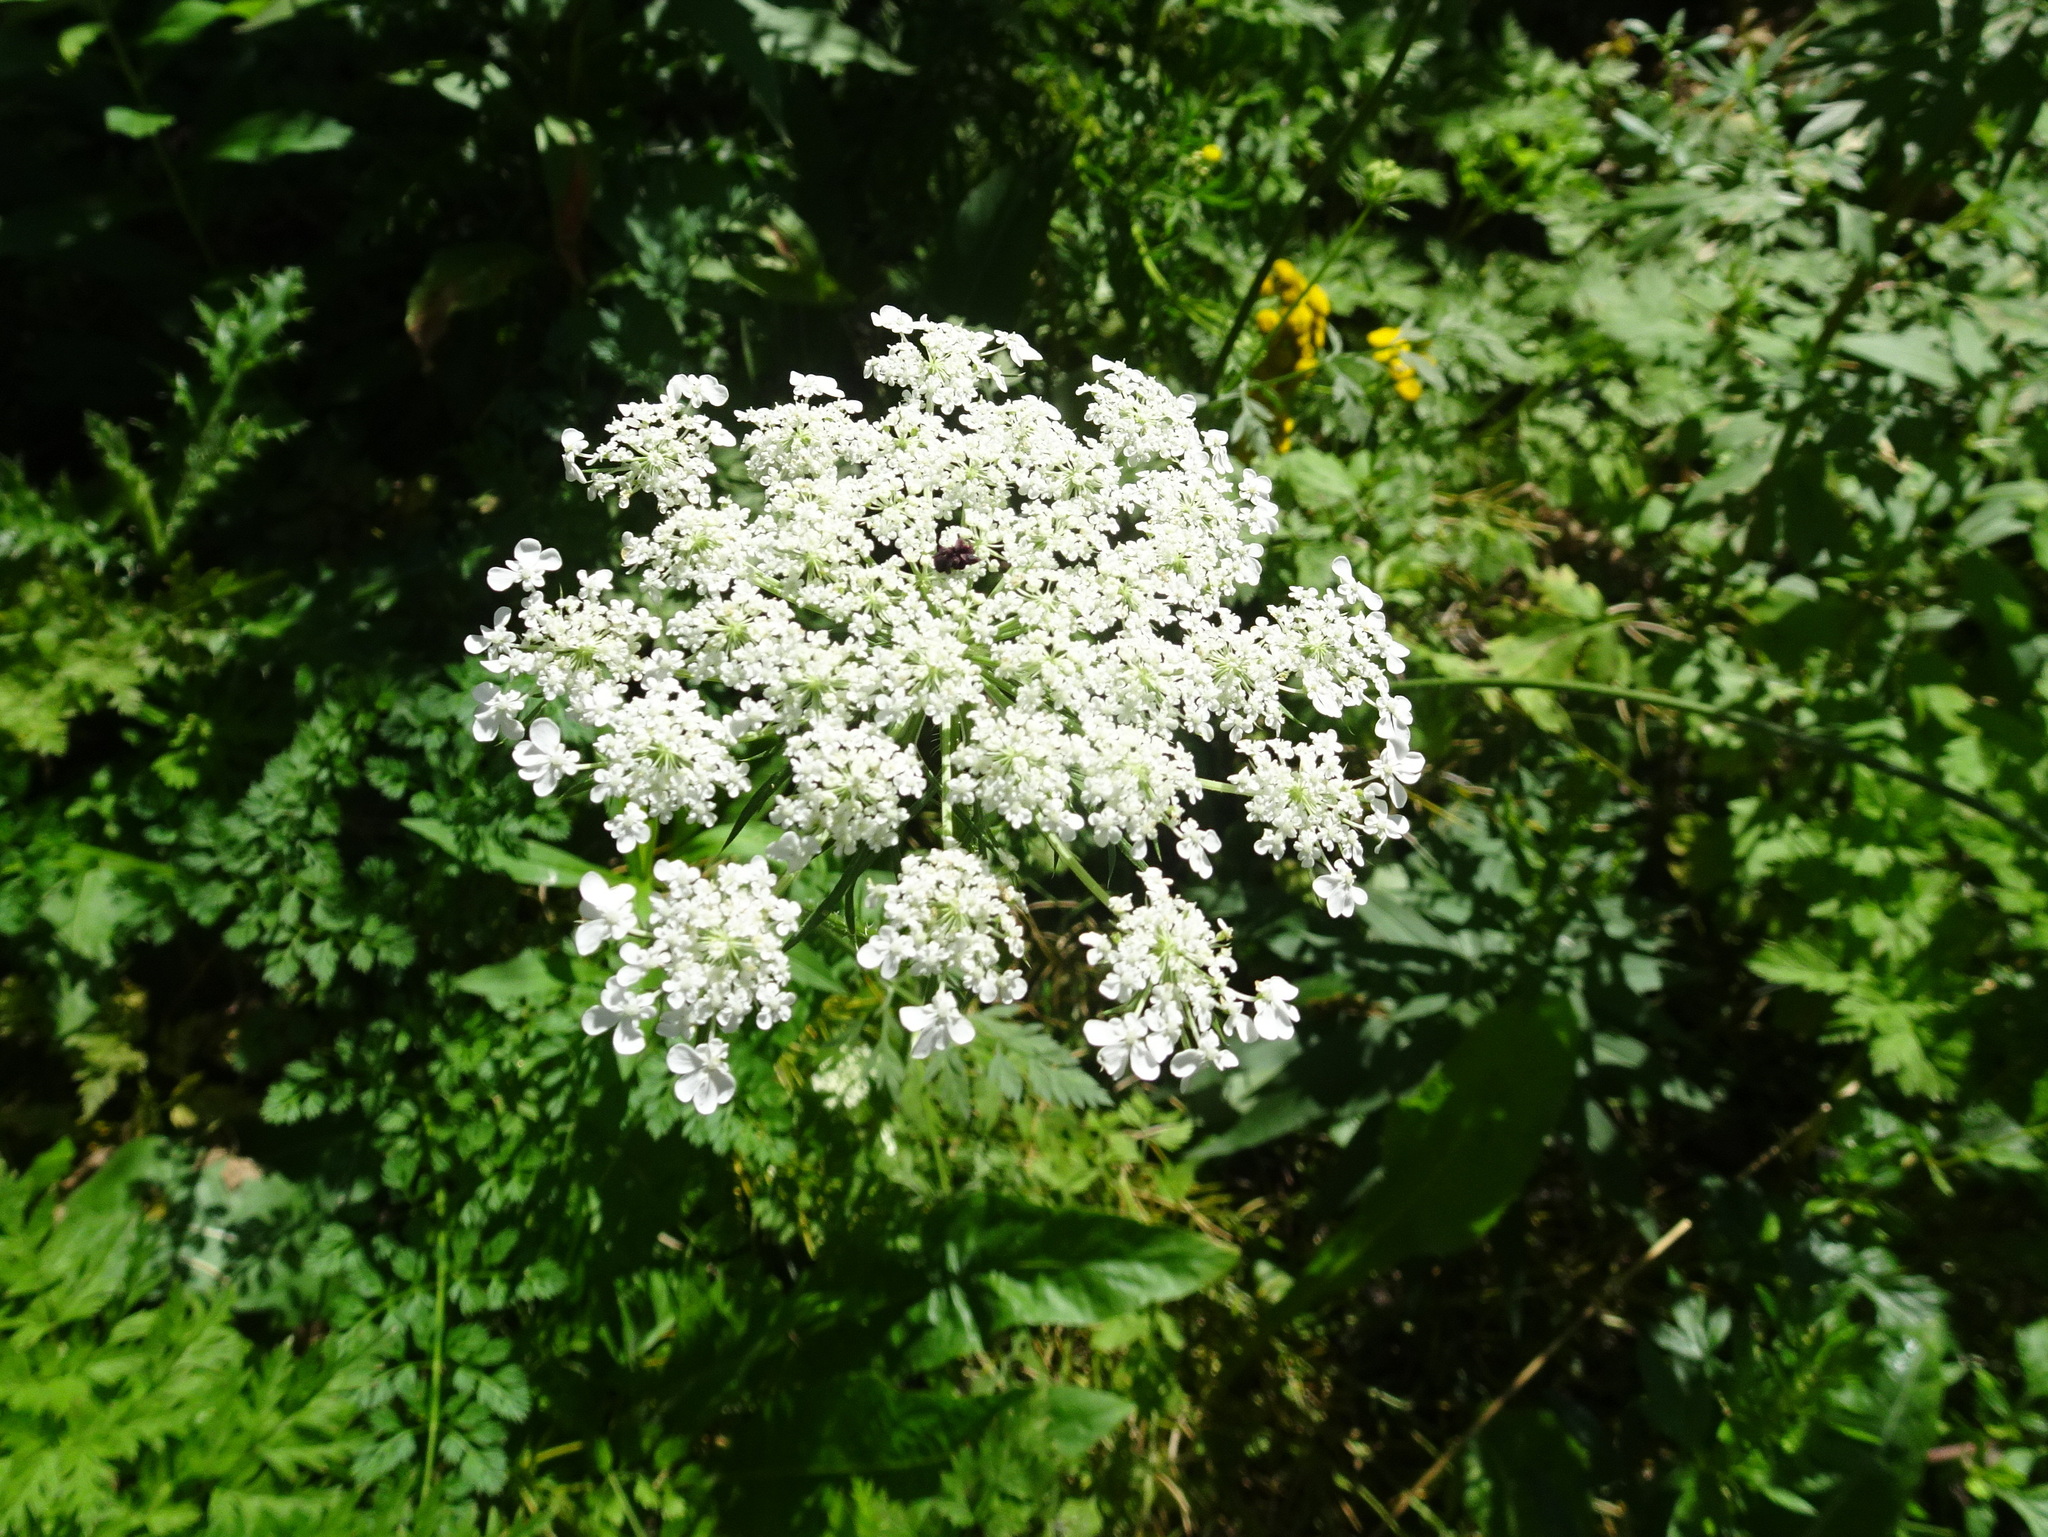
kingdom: Plantae
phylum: Tracheophyta
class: Magnoliopsida
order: Apiales
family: Apiaceae
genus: Daucus
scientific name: Daucus carota
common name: Wild carrot
